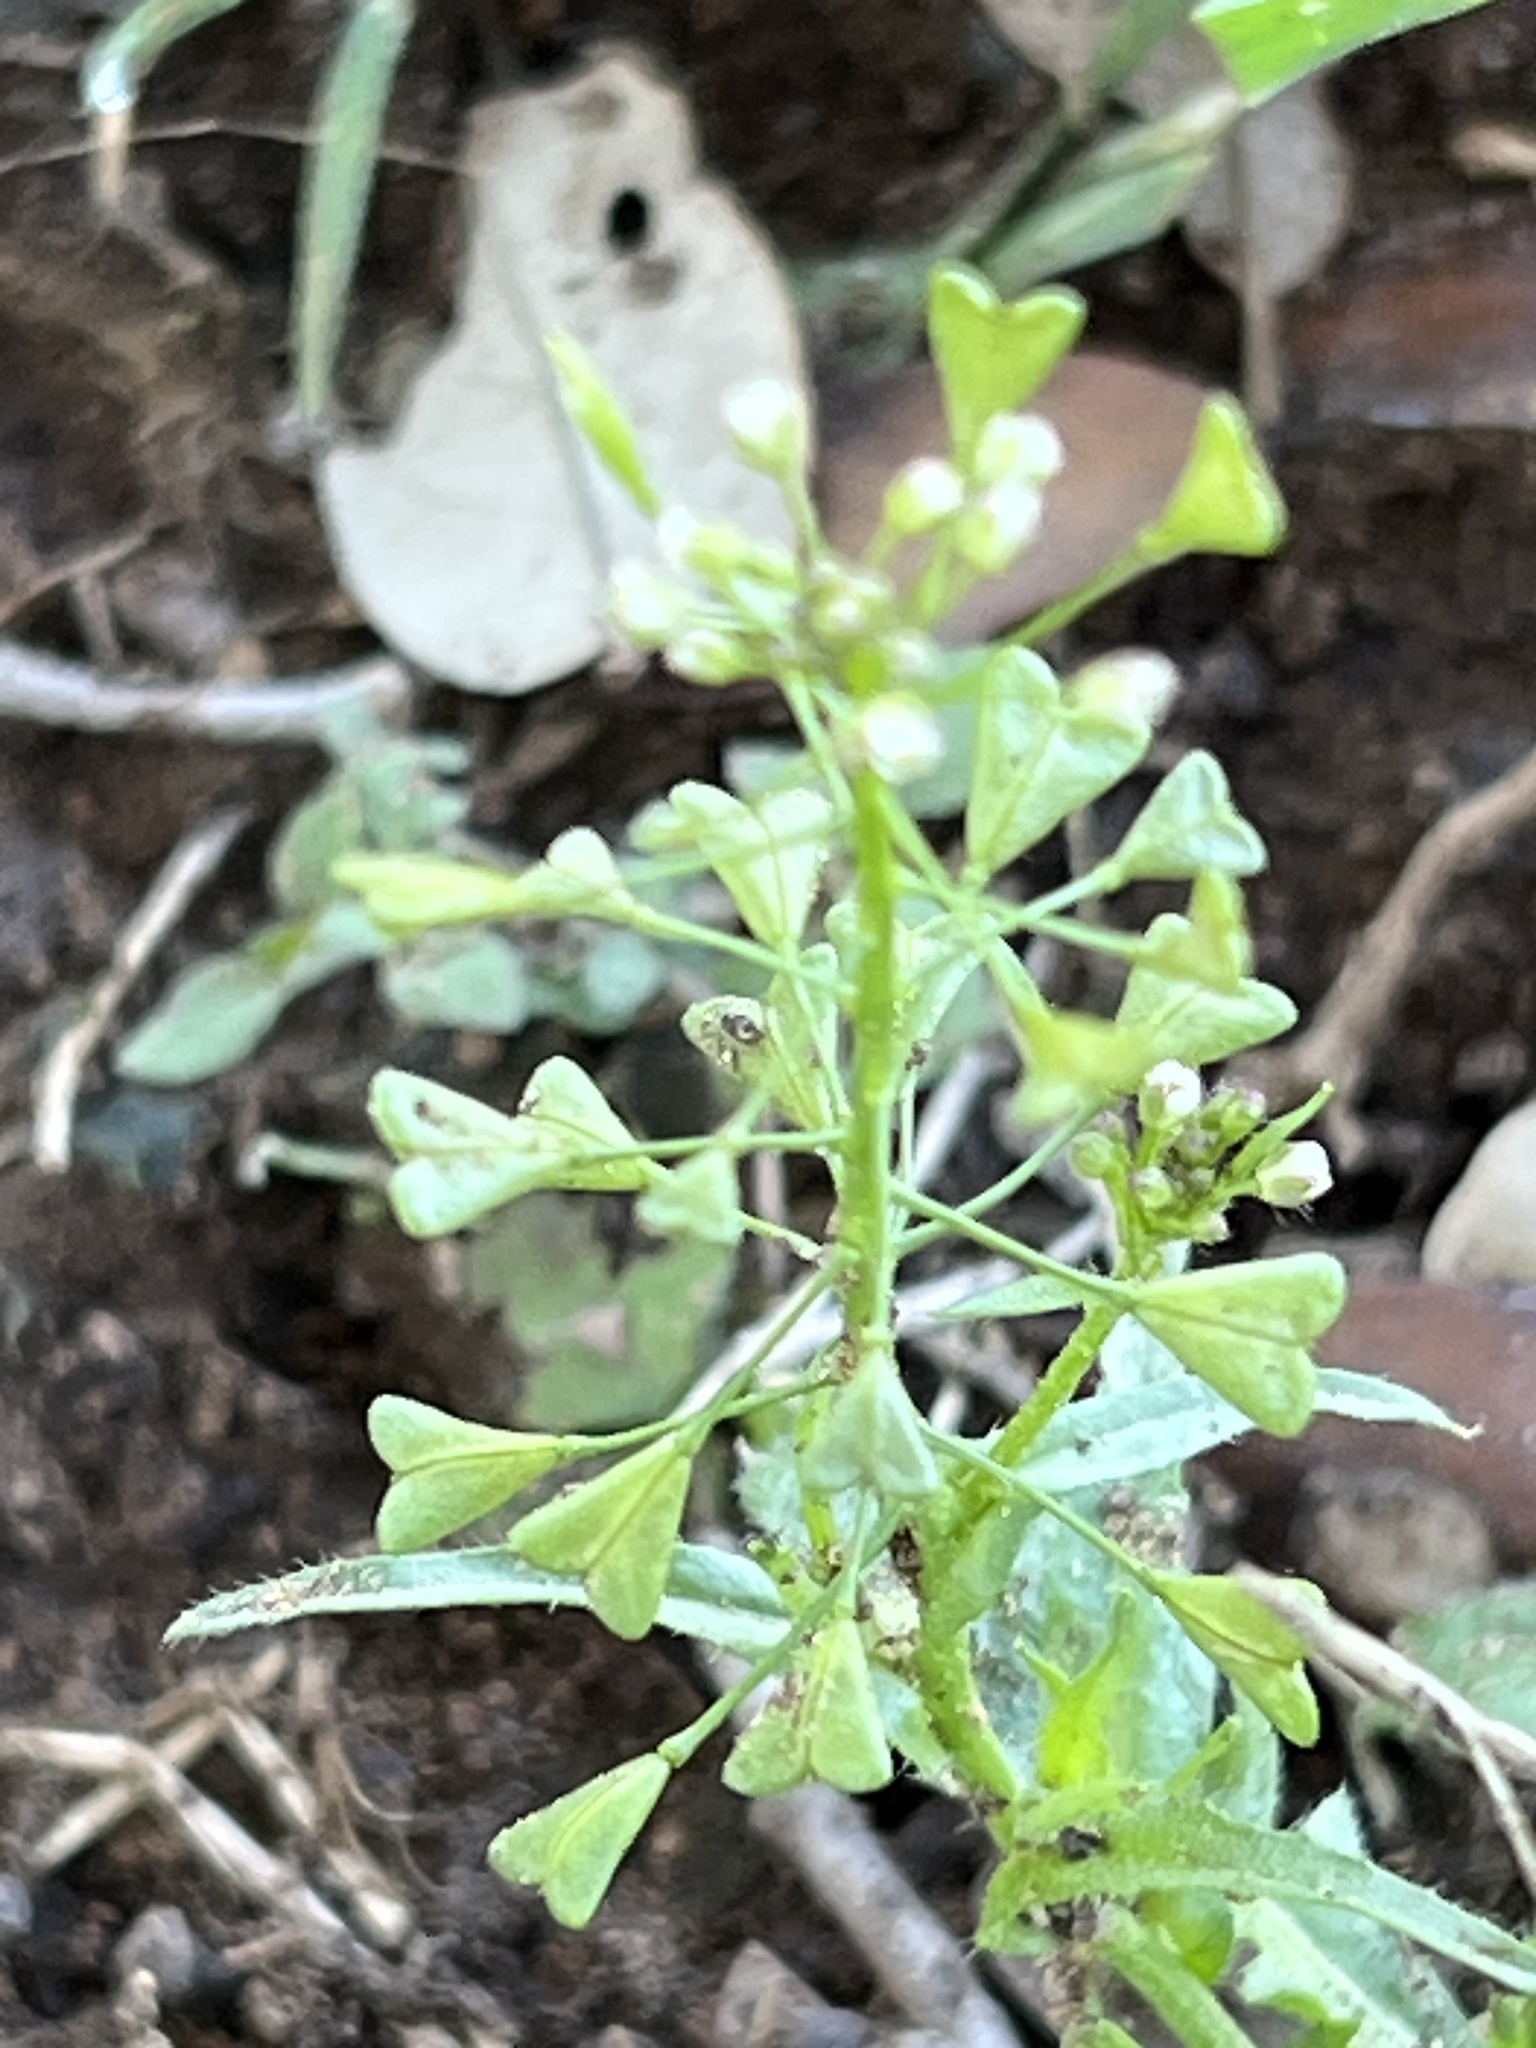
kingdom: Plantae
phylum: Tracheophyta
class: Magnoliopsida
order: Brassicales
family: Brassicaceae
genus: Capsella
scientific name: Capsella bursa-pastoris
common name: Shepherd's purse
